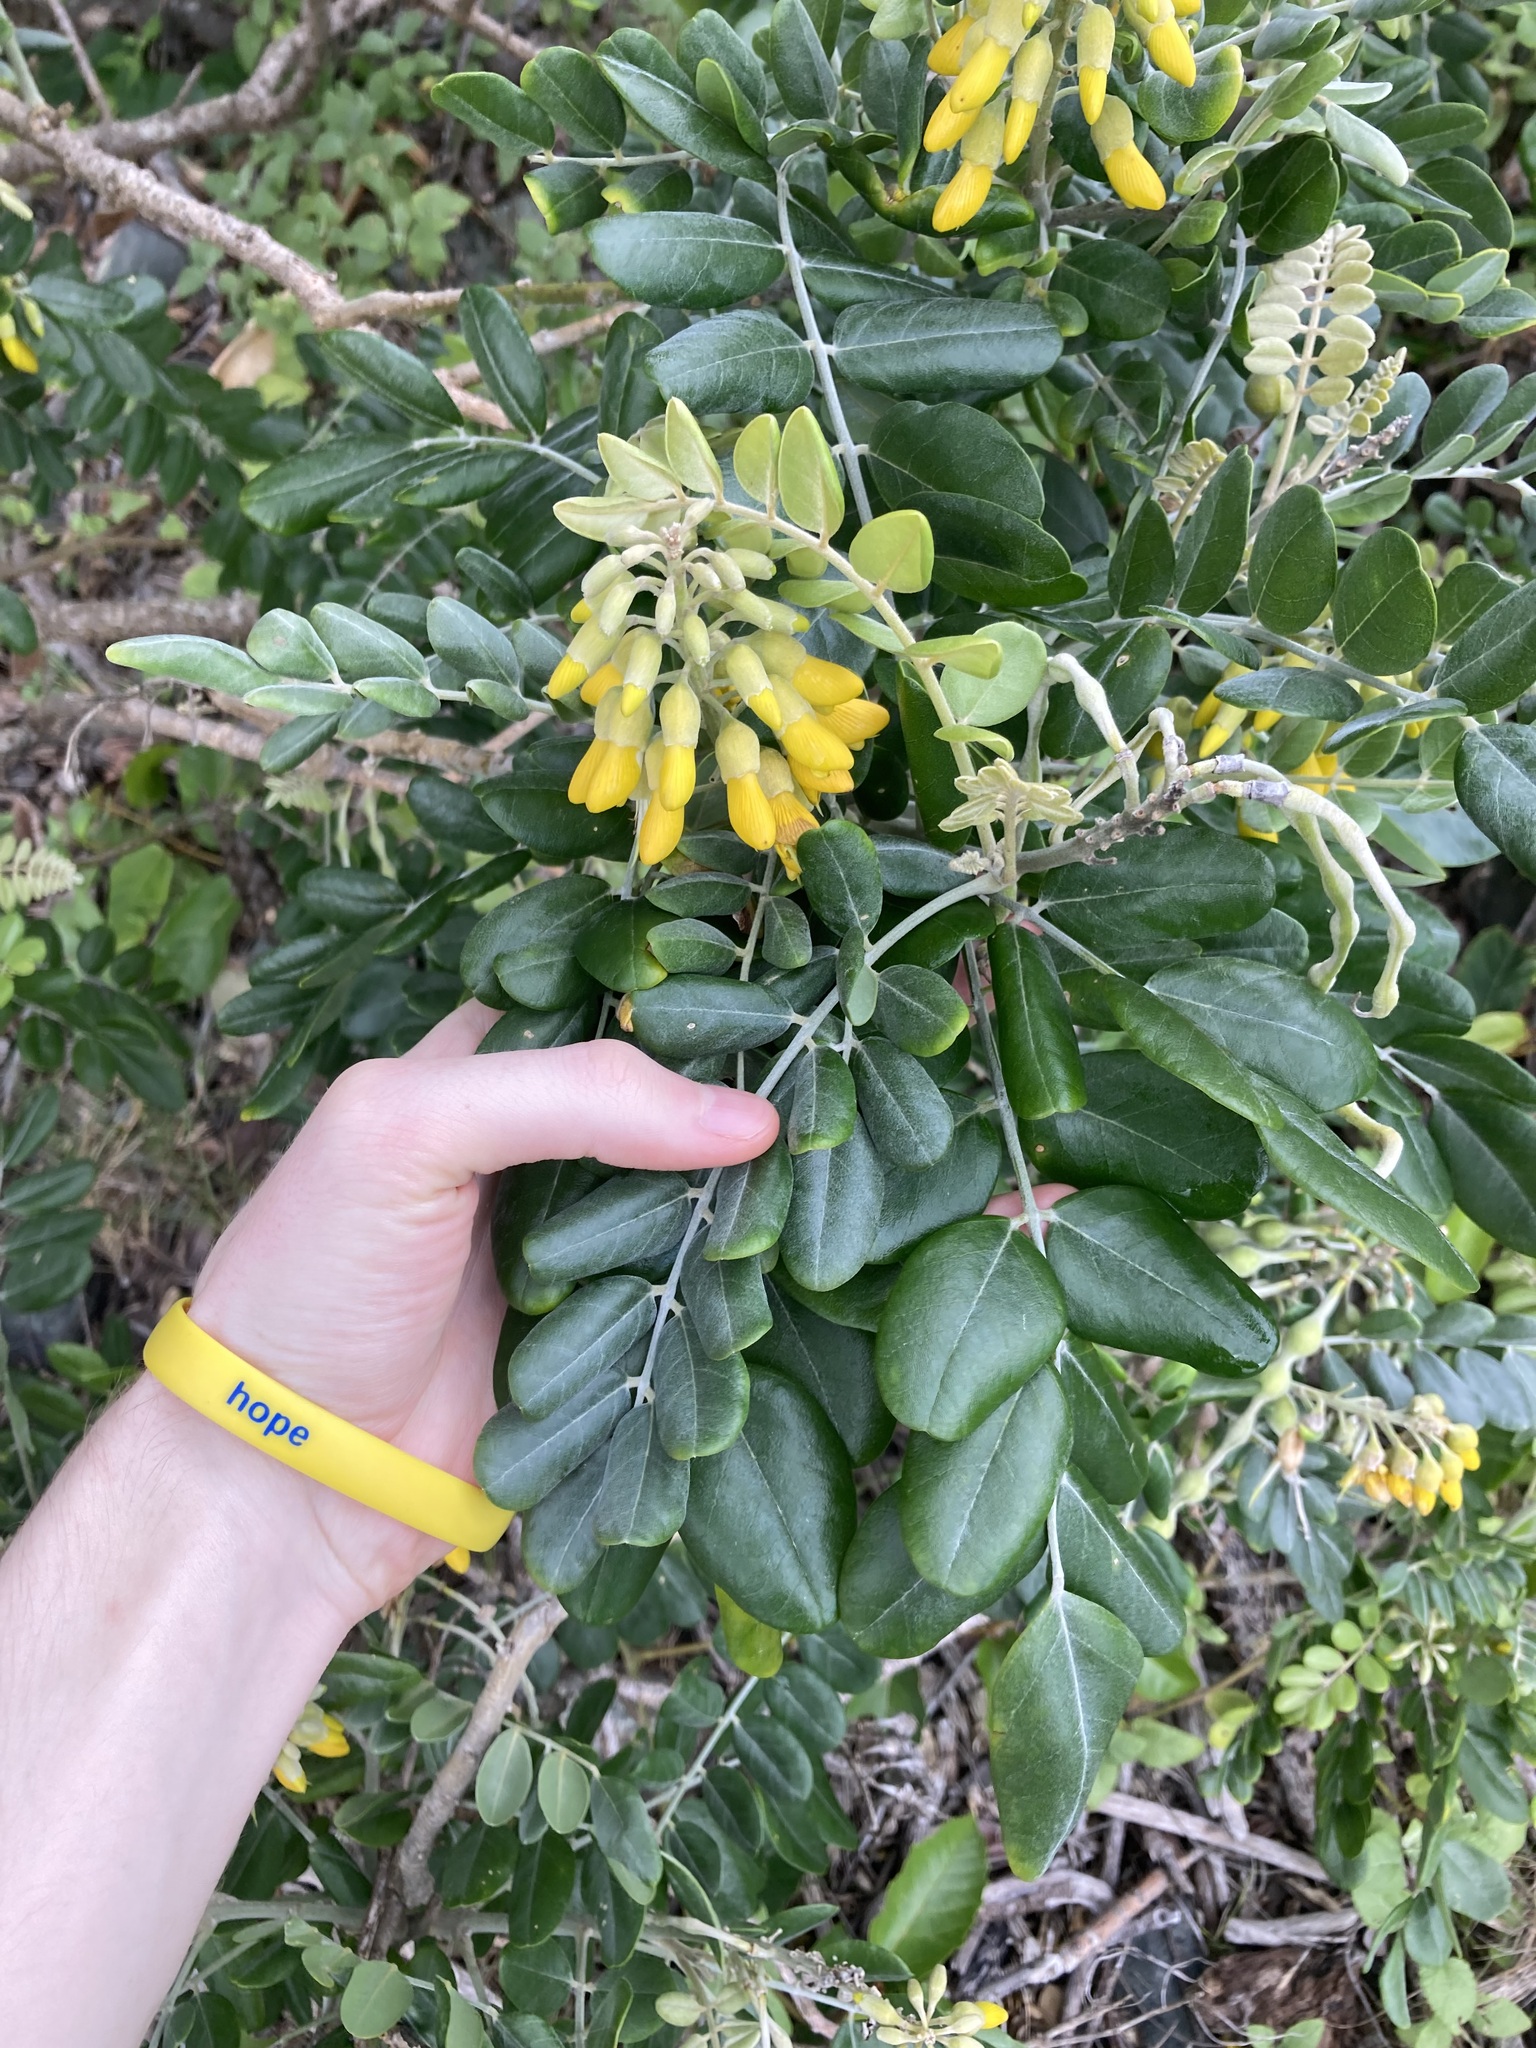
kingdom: Plantae
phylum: Tracheophyta
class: Magnoliopsida
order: Fabales
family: Fabaceae
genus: Sophora
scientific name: Sophora tomentosa
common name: Yellow necklacepod
